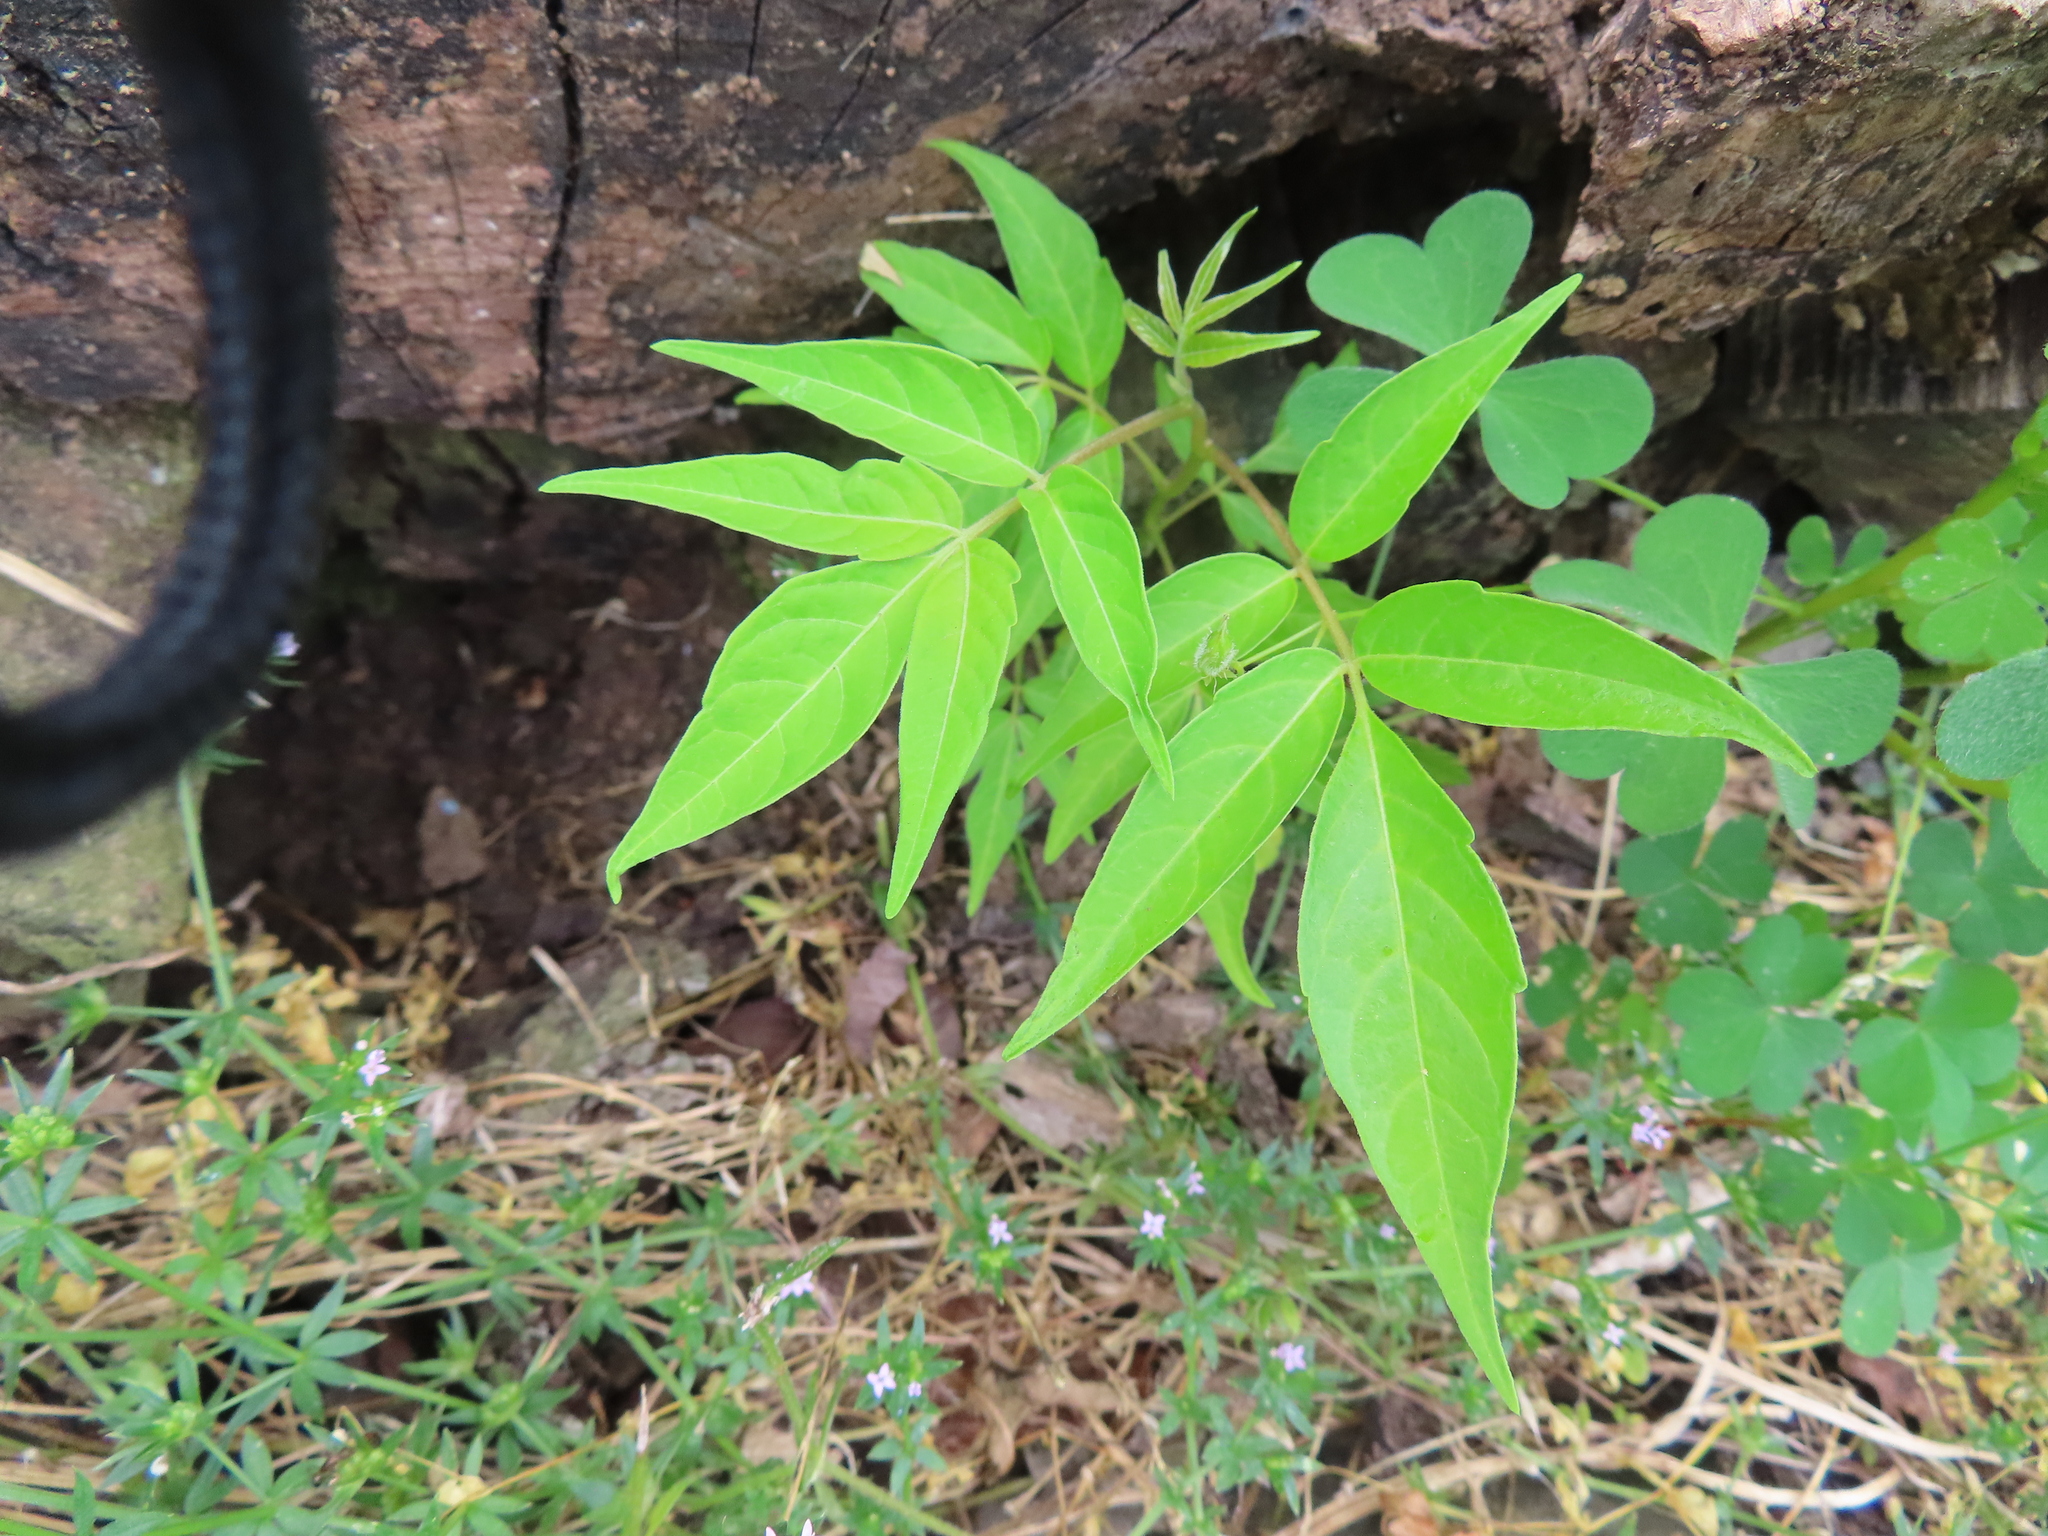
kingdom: Plantae
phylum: Tracheophyta
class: Magnoliopsida
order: Sapindales
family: Simaroubaceae
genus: Ailanthus
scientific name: Ailanthus altissima
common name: Tree-of-heaven
